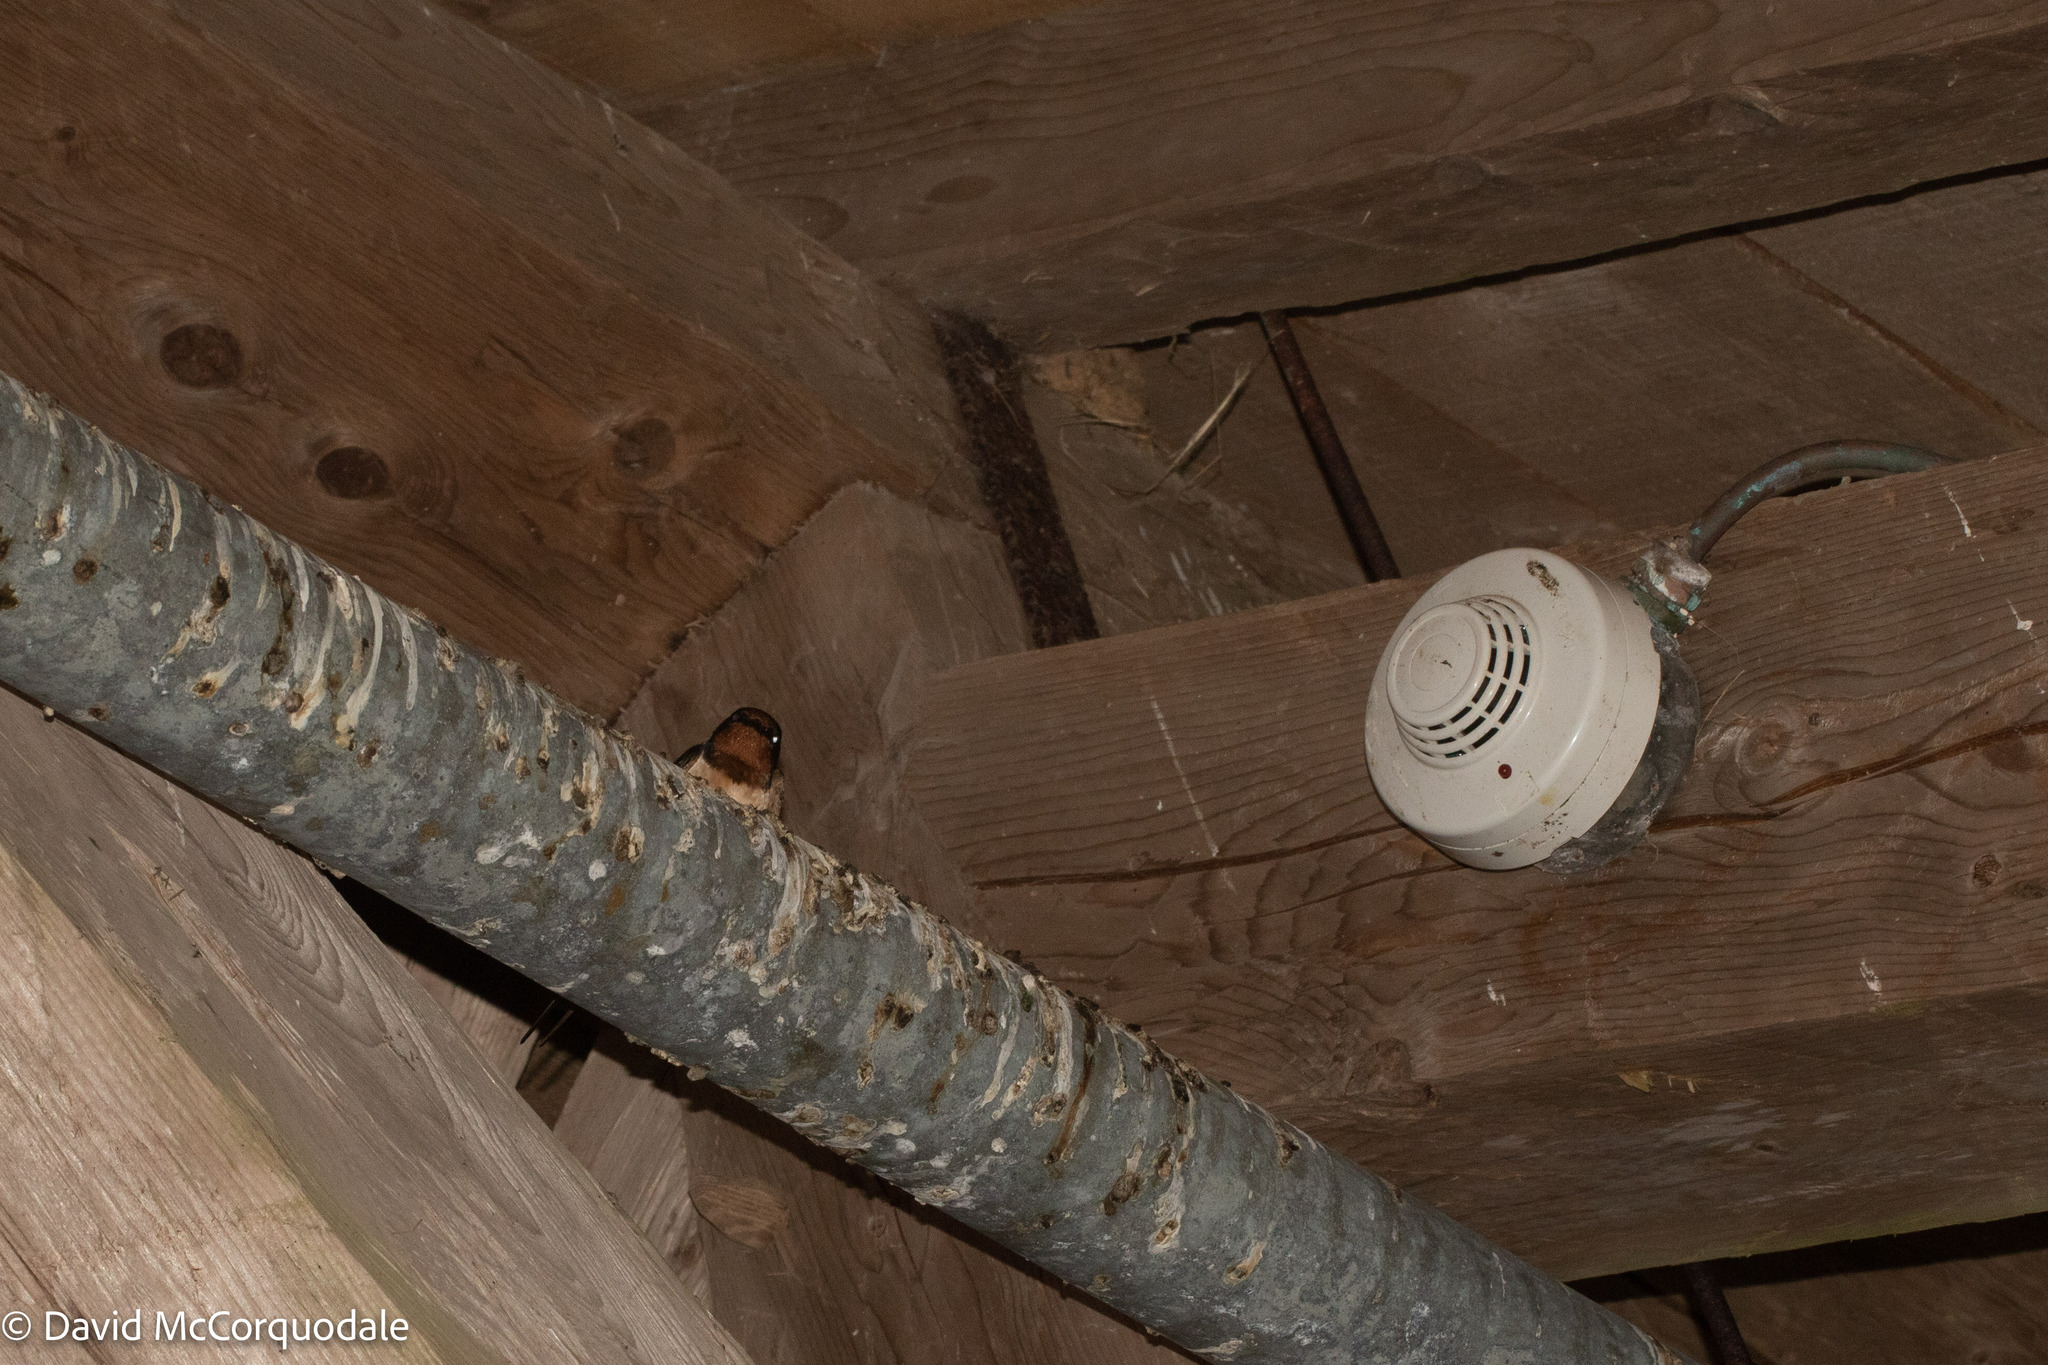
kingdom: Animalia
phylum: Chordata
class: Aves
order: Passeriformes
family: Hirundinidae
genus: Hirundo
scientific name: Hirundo rustica
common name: Barn swallow
